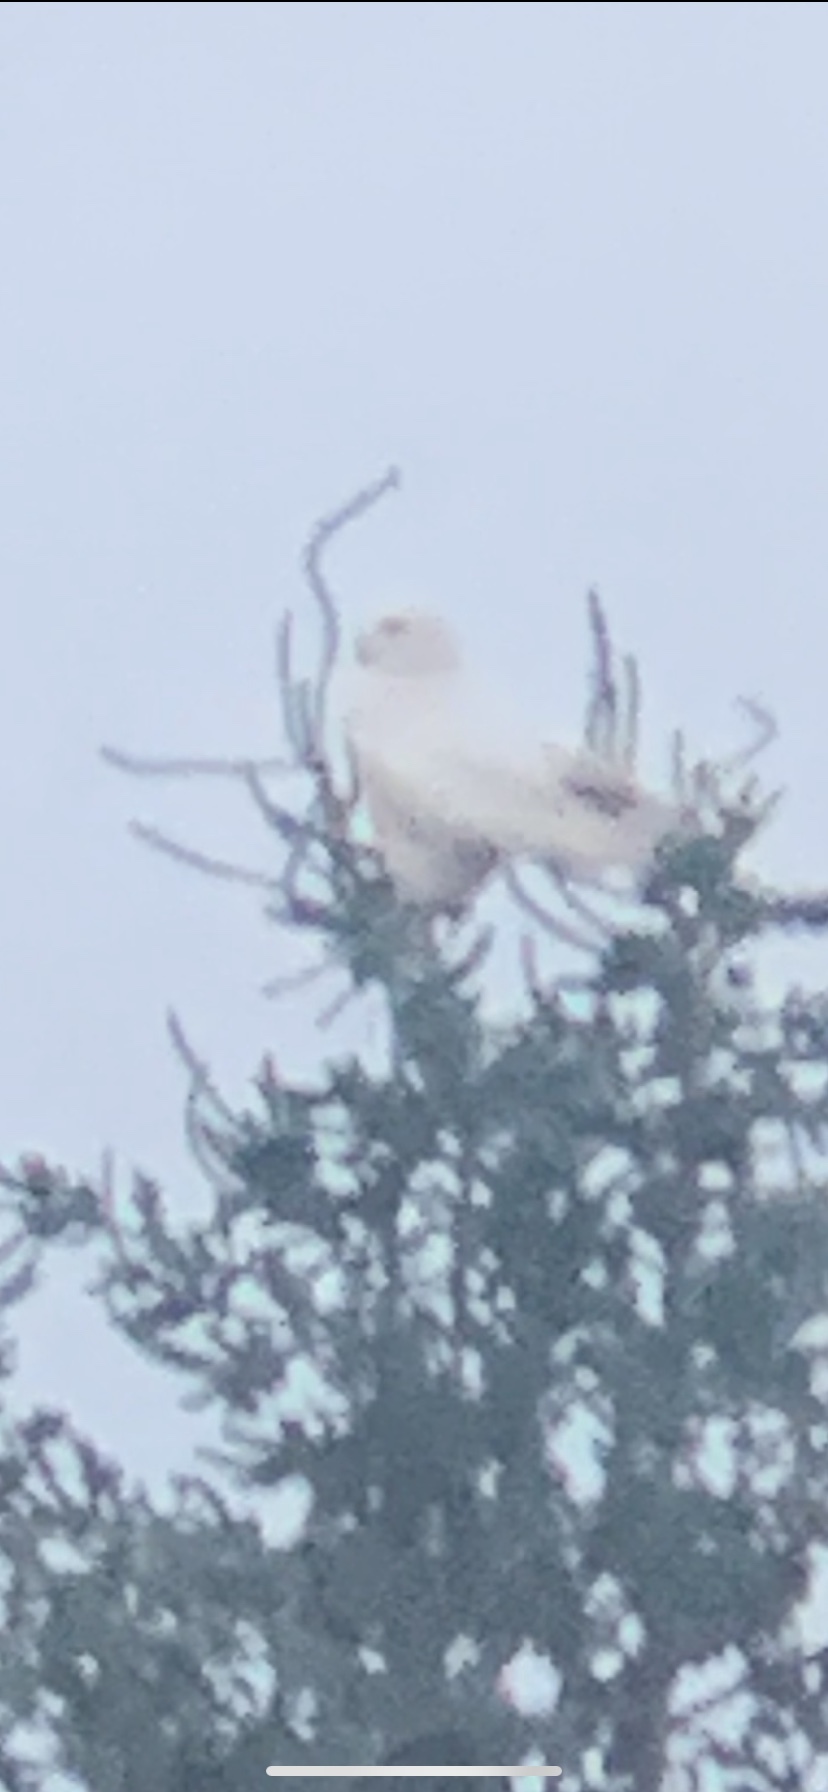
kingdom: Animalia
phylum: Chordata
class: Aves
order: Strigiformes
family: Strigidae
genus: Bubo
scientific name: Bubo scandiacus
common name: Snowy owl
